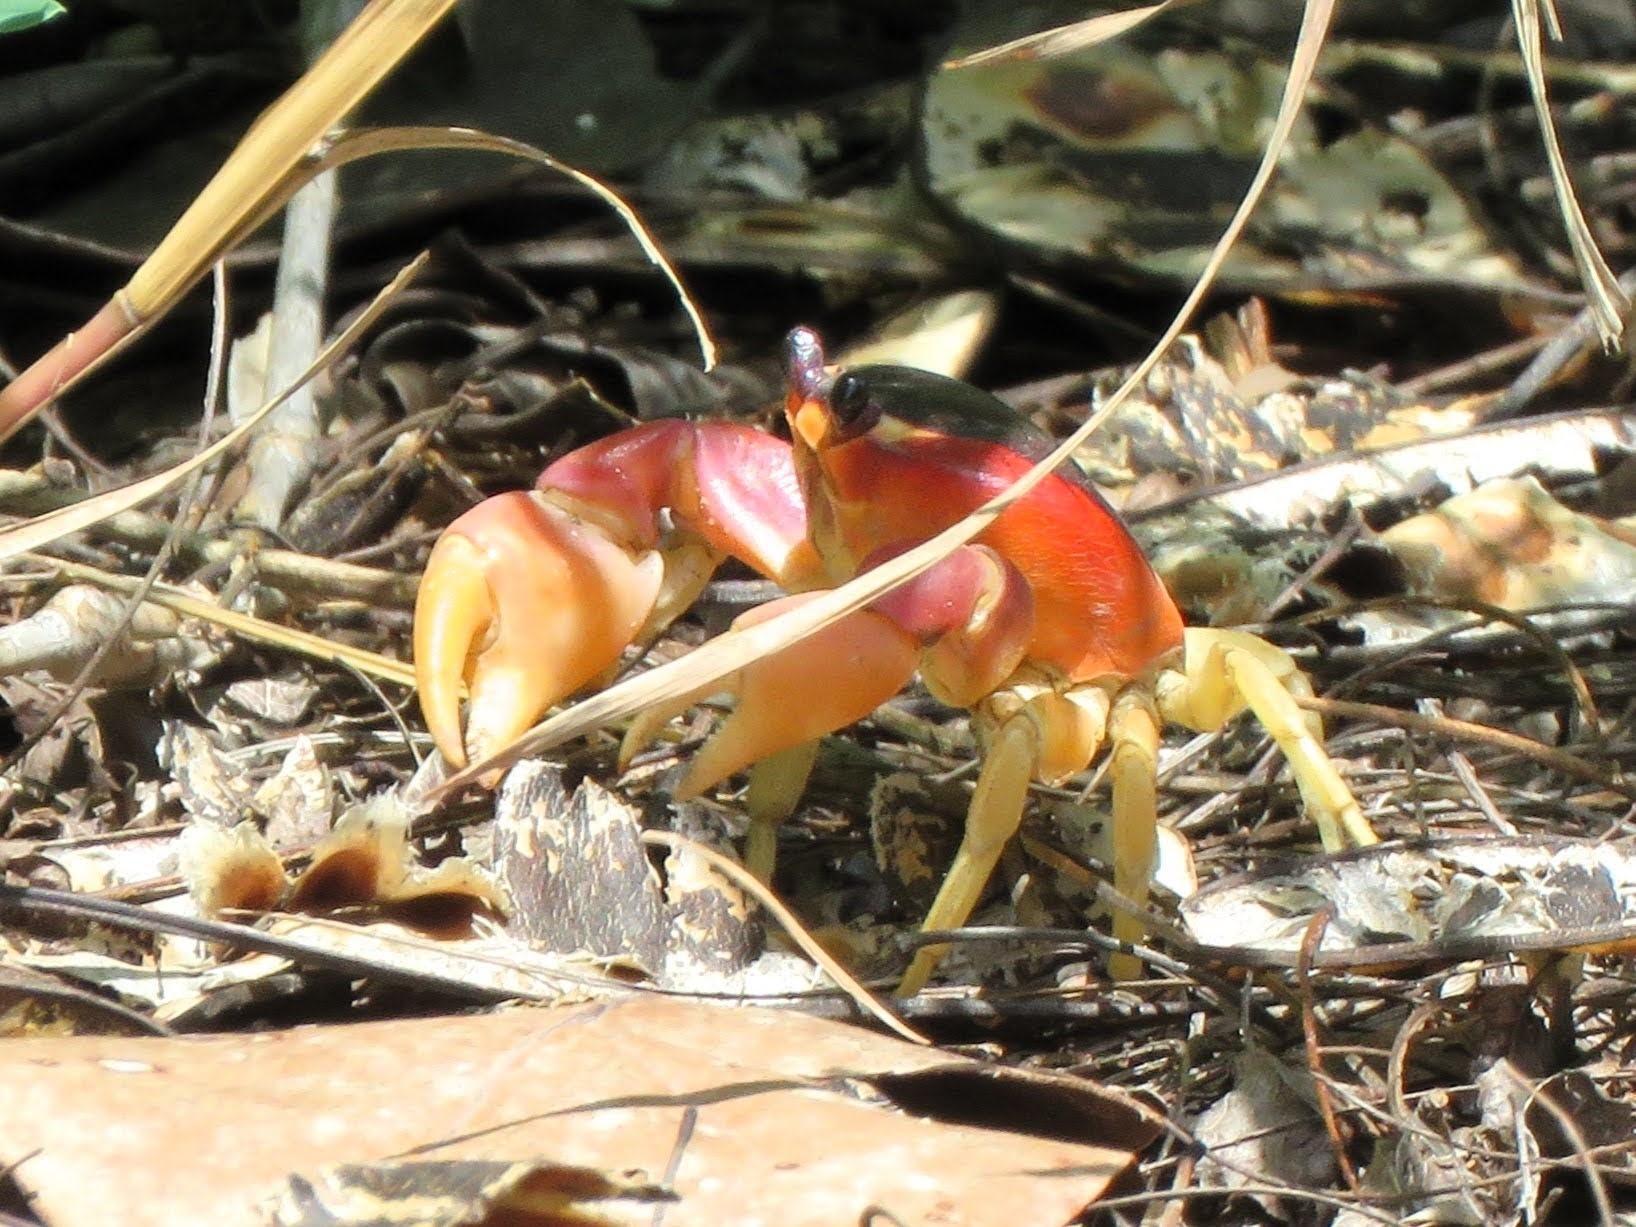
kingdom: Animalia
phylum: Arthropoda
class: Malacostraca
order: Decapoda
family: Gecarcinidae
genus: Gecarcinus
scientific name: Gecarcinus lateralis
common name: Bermuda land crab
